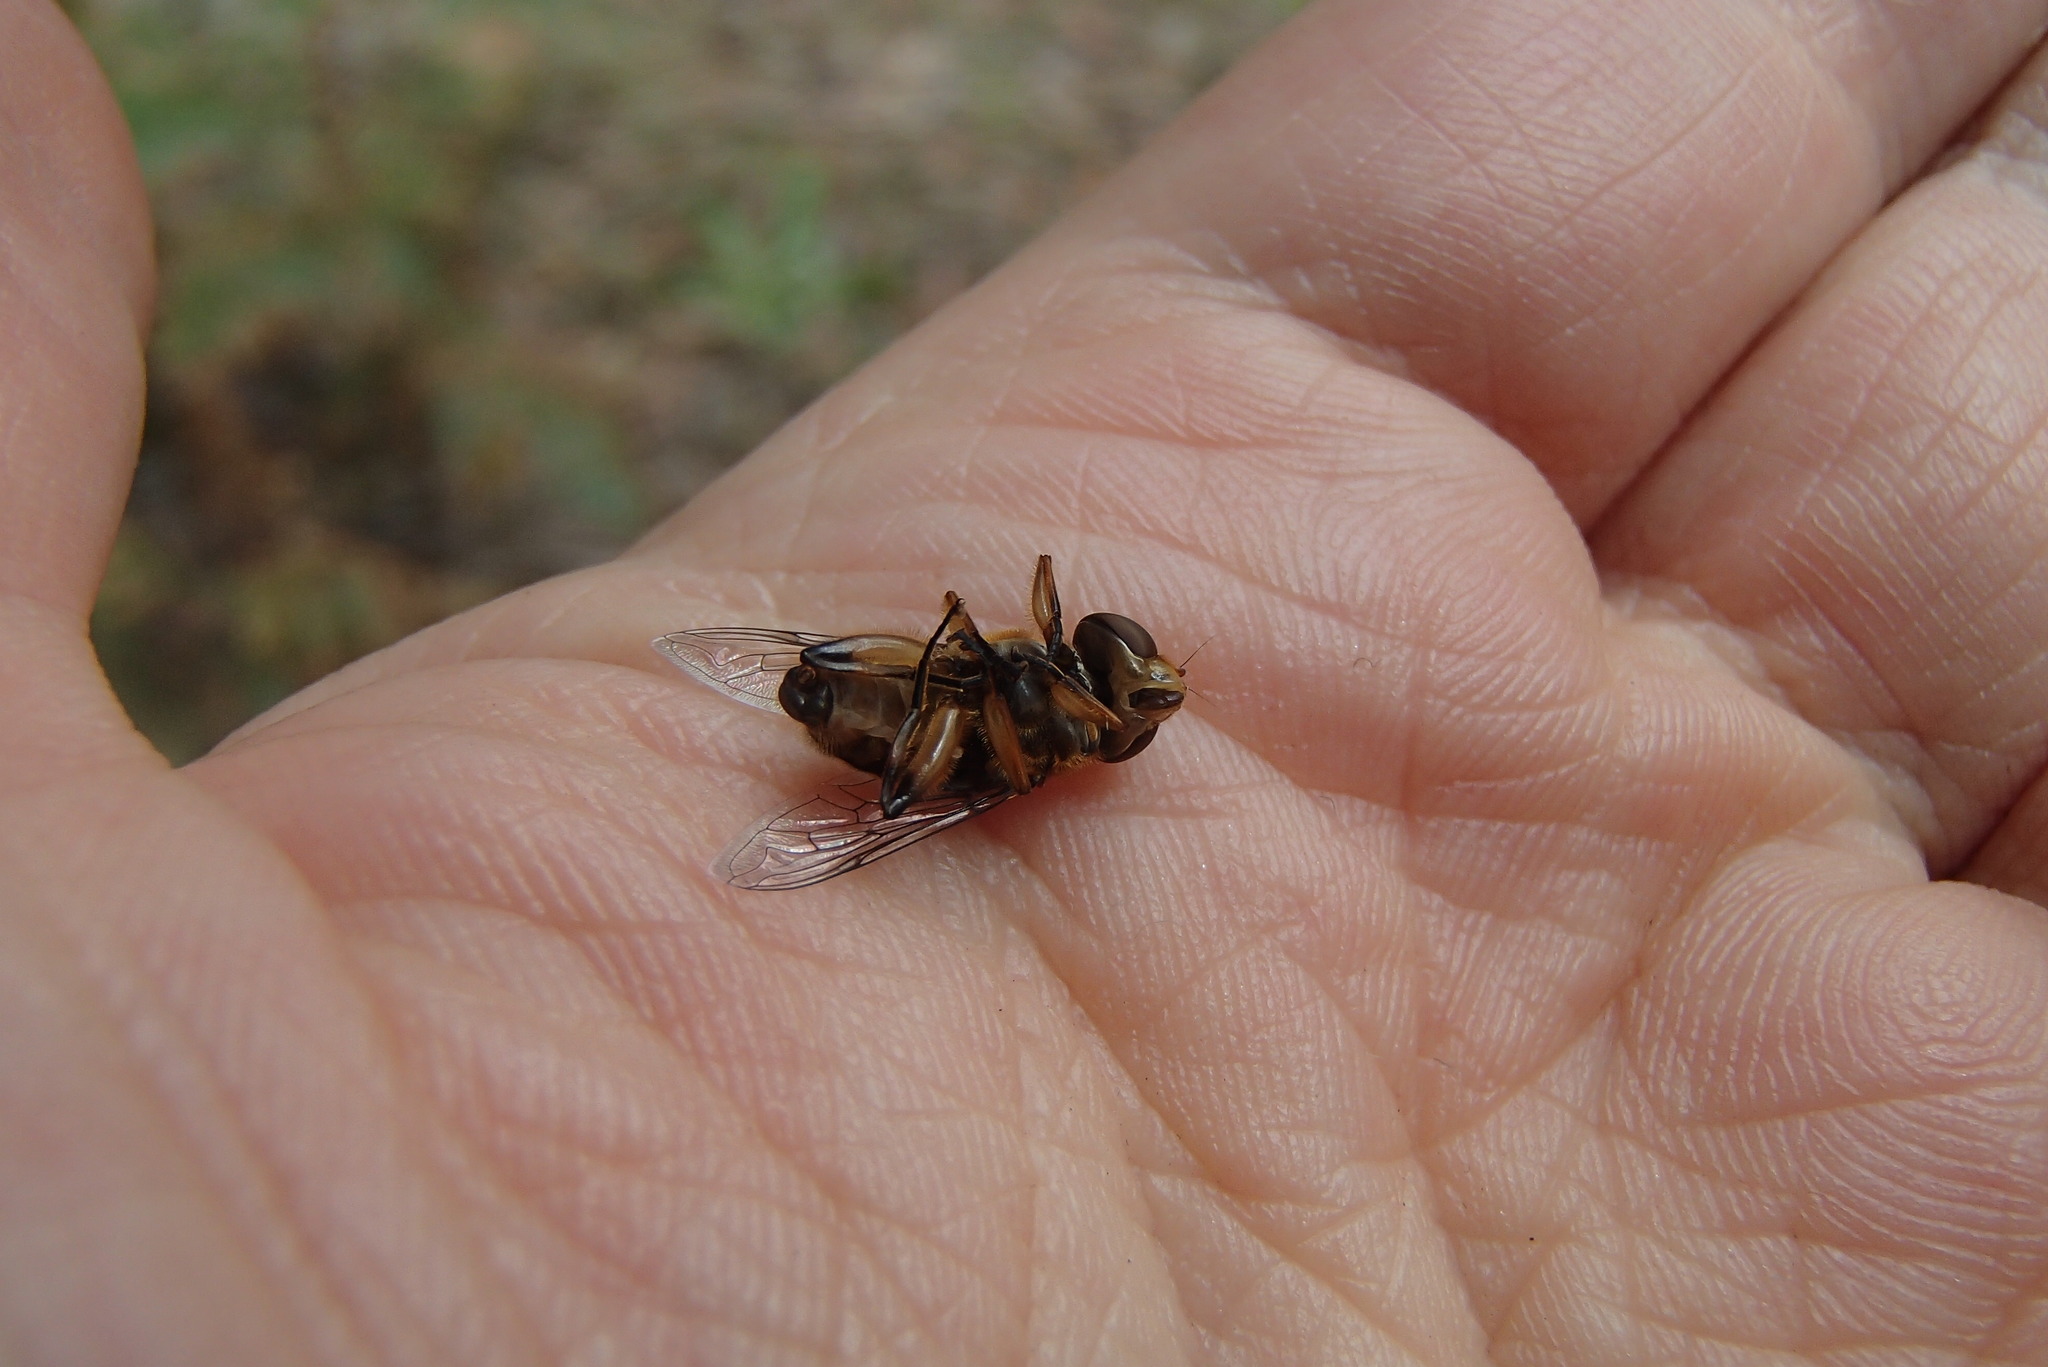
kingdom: Animalia
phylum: Arthropoda
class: Insecta
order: Diptera
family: Syrphidae
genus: Austalis
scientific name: Austalis copiosa
